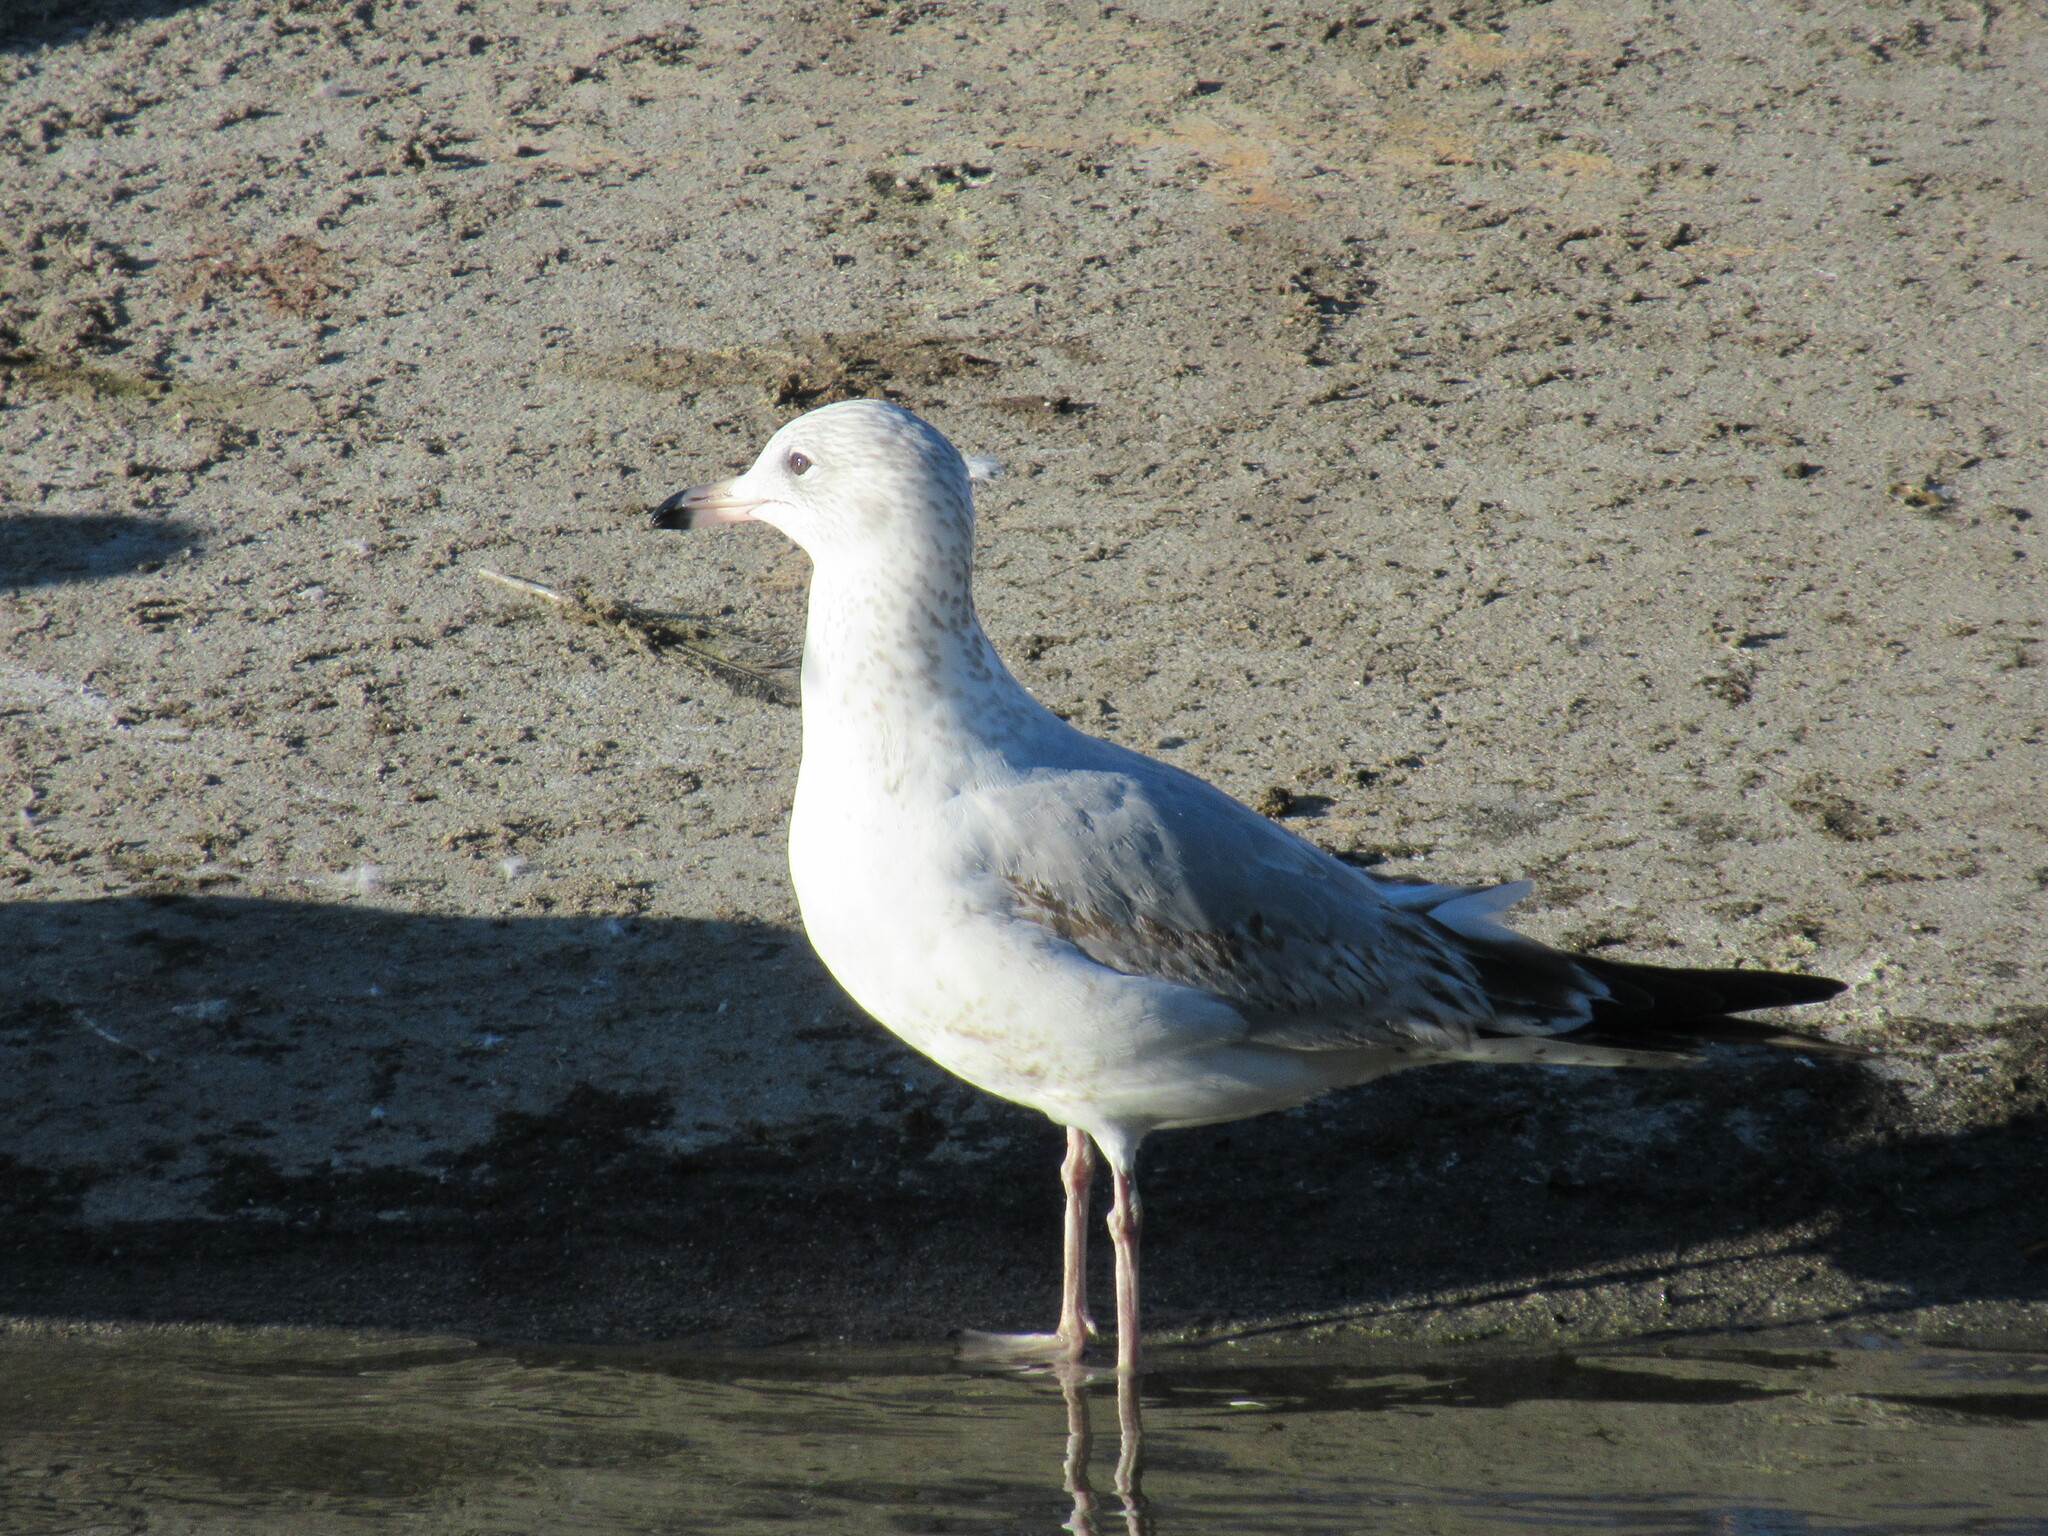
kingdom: Animalia
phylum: Chordata
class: Aves
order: Charadriiformes
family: Laridae
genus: Larus
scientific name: Larus delawarensis
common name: Ring-billed gull
